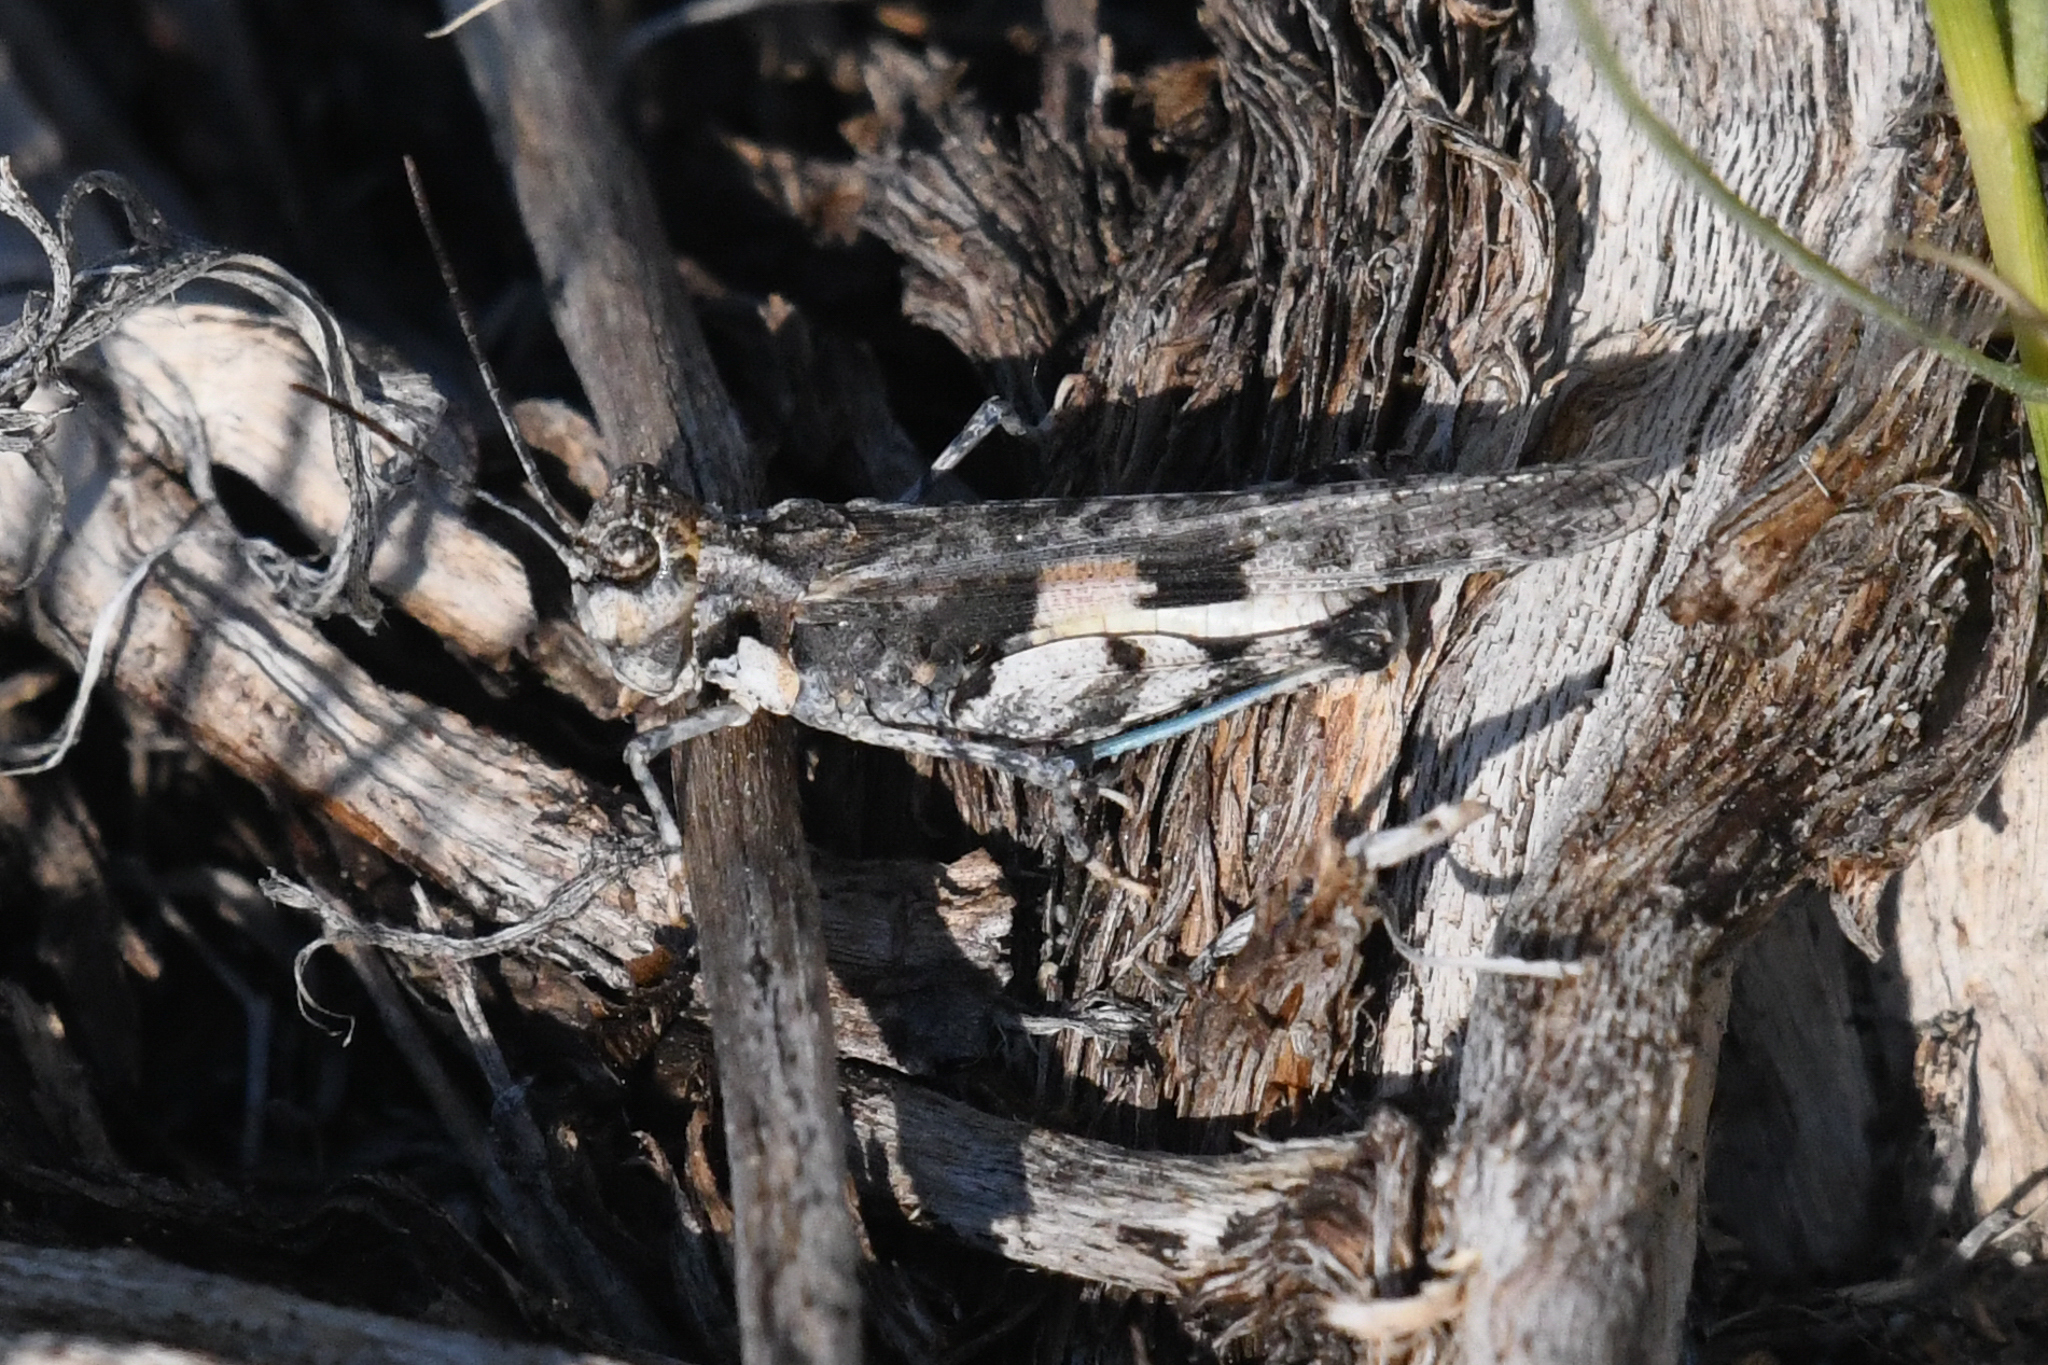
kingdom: Animalia
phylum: Arthropoda
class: Insecta
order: Orthoptera
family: Acrididae
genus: Mestobregma
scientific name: Mestobregma impexum
